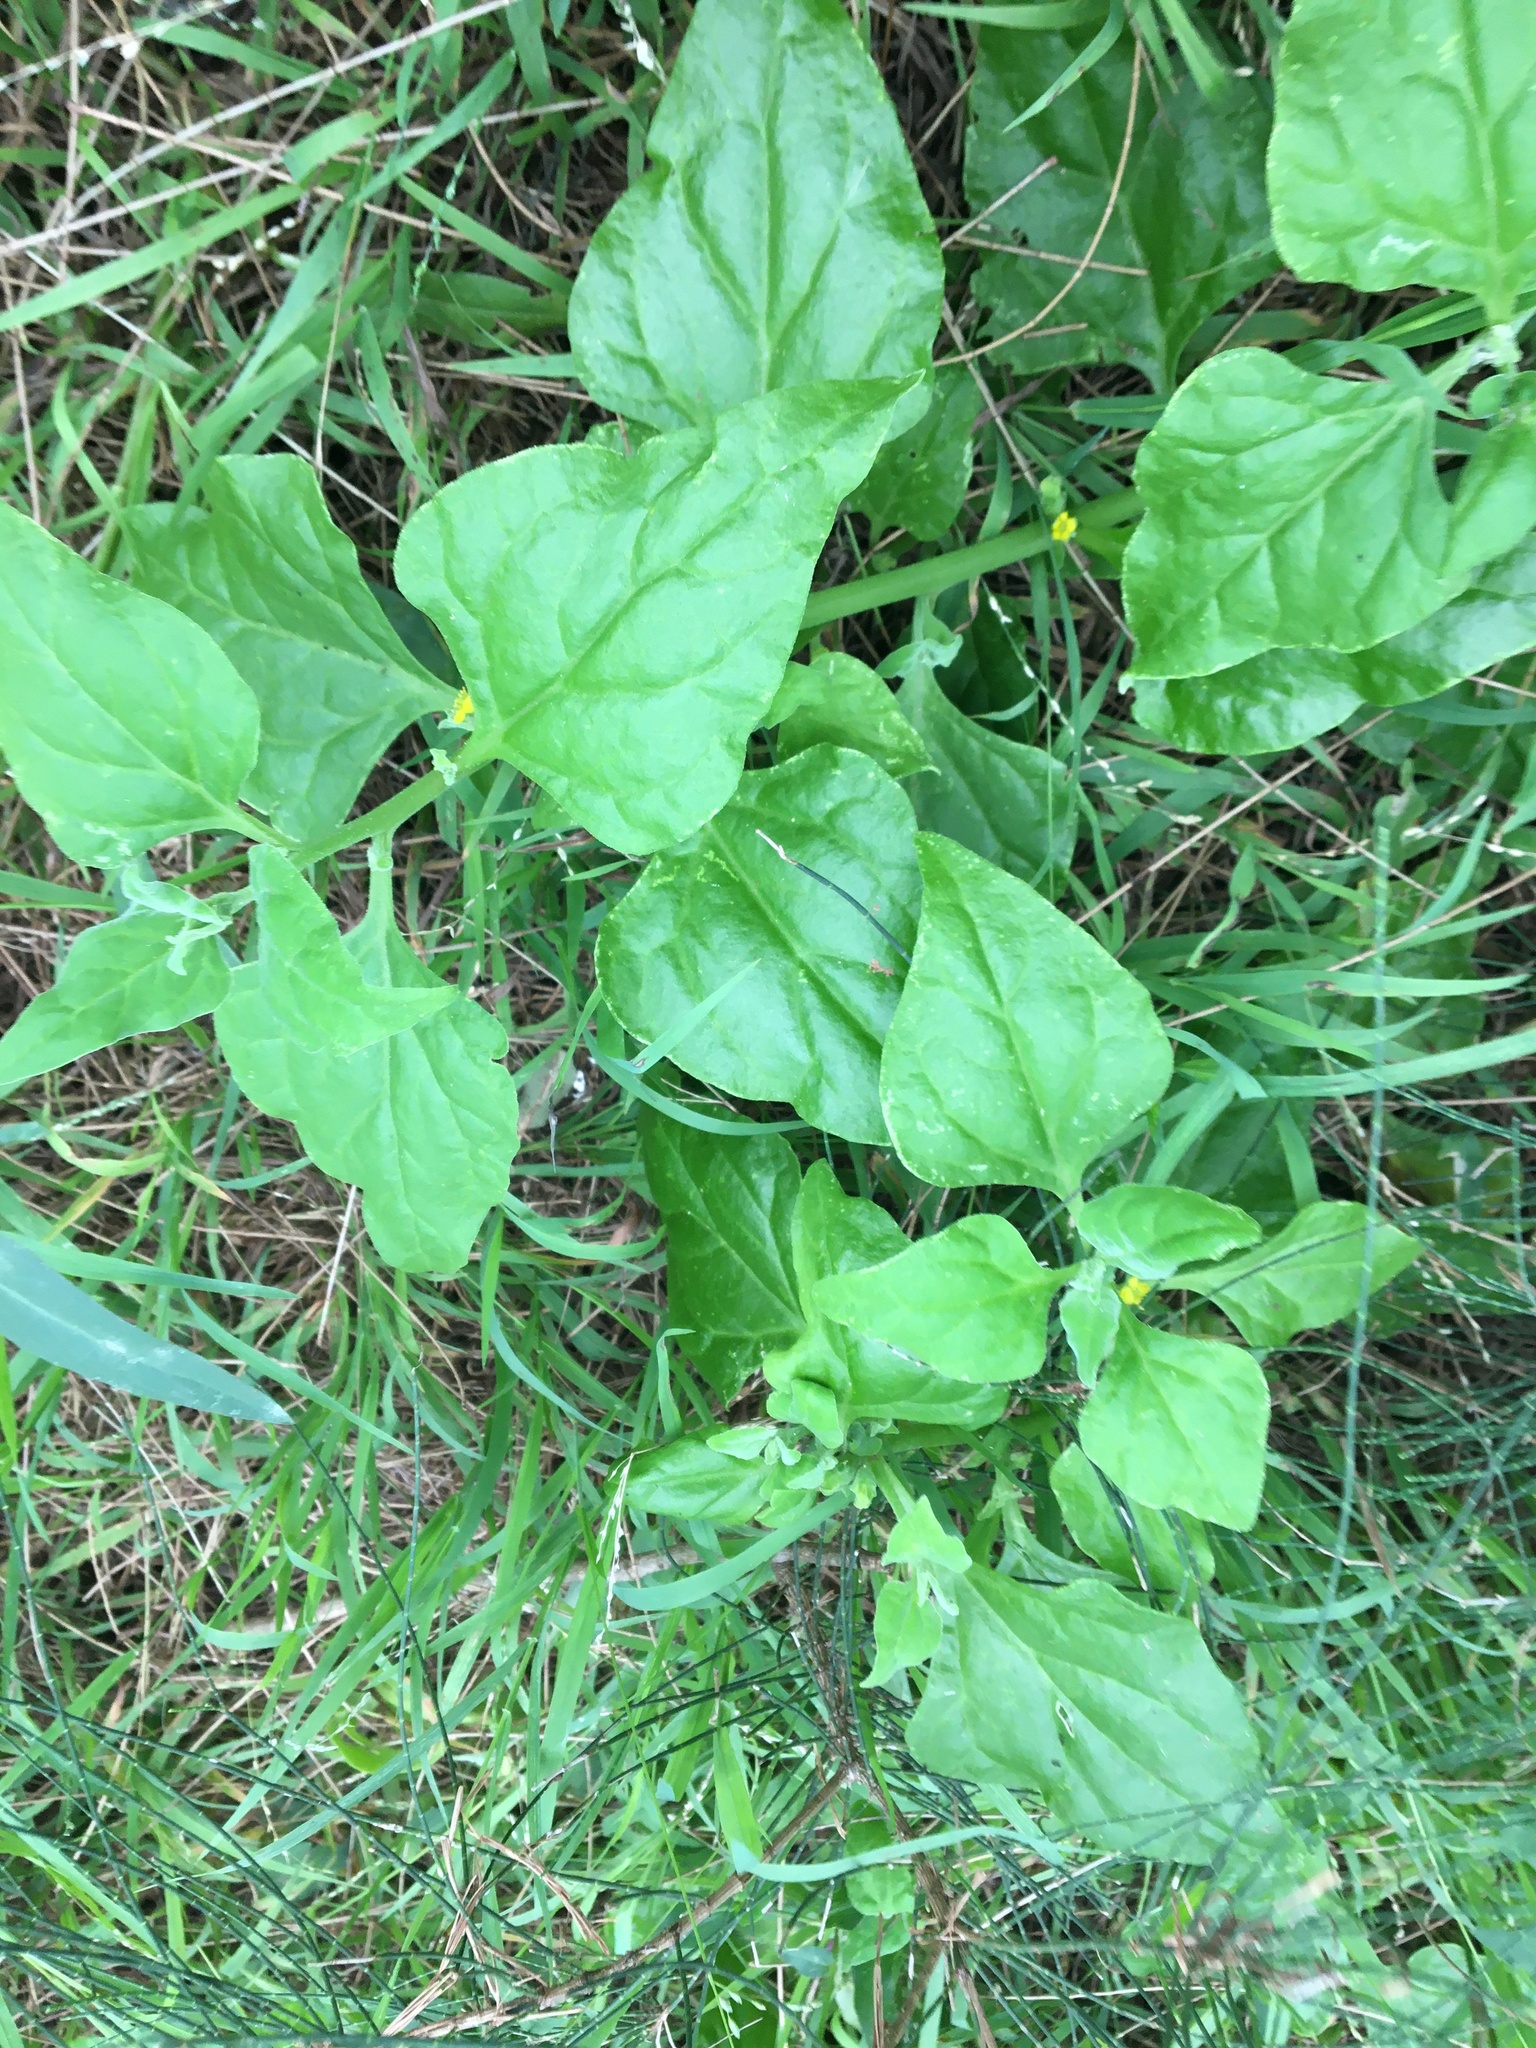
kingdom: Plantae
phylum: Tracheophyta
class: Magnoliopsida
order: Caryophyllales
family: Aizoaceae
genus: Tetragonia
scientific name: Tetragonia tetragonoides
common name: New zealand-spinach
